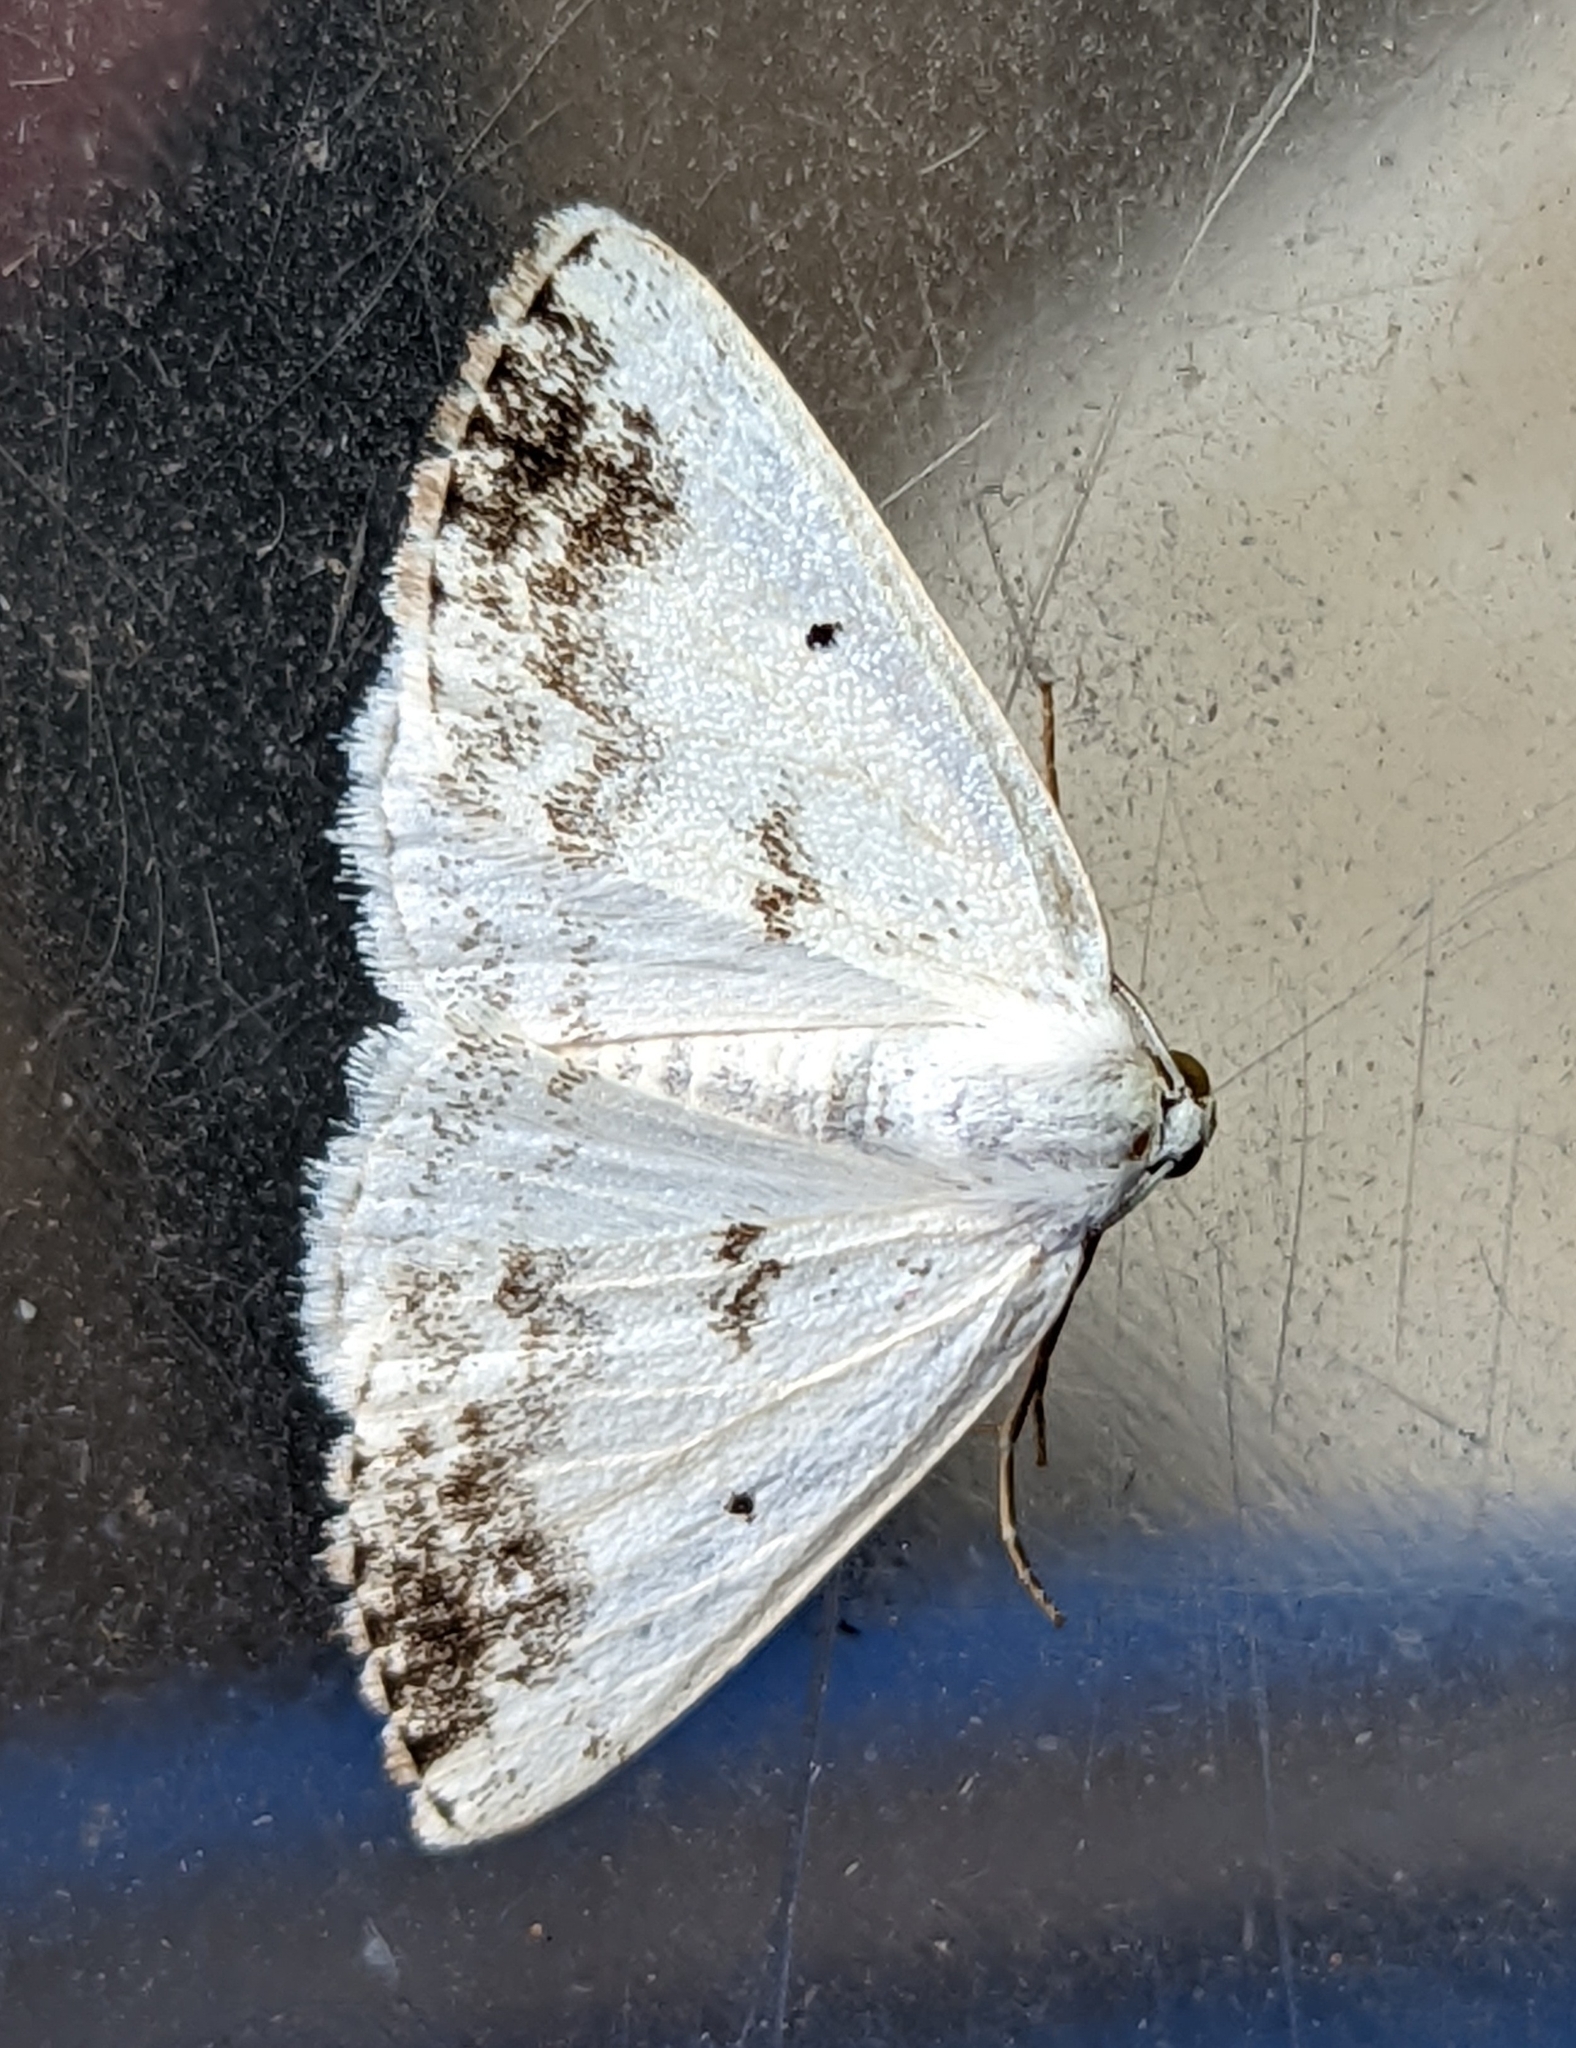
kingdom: Animalia
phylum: Arthropoda
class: Insecta
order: Lepidoptera
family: Geometridae
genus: Lomographa
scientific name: Lomographa temerata
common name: Clouded silver
